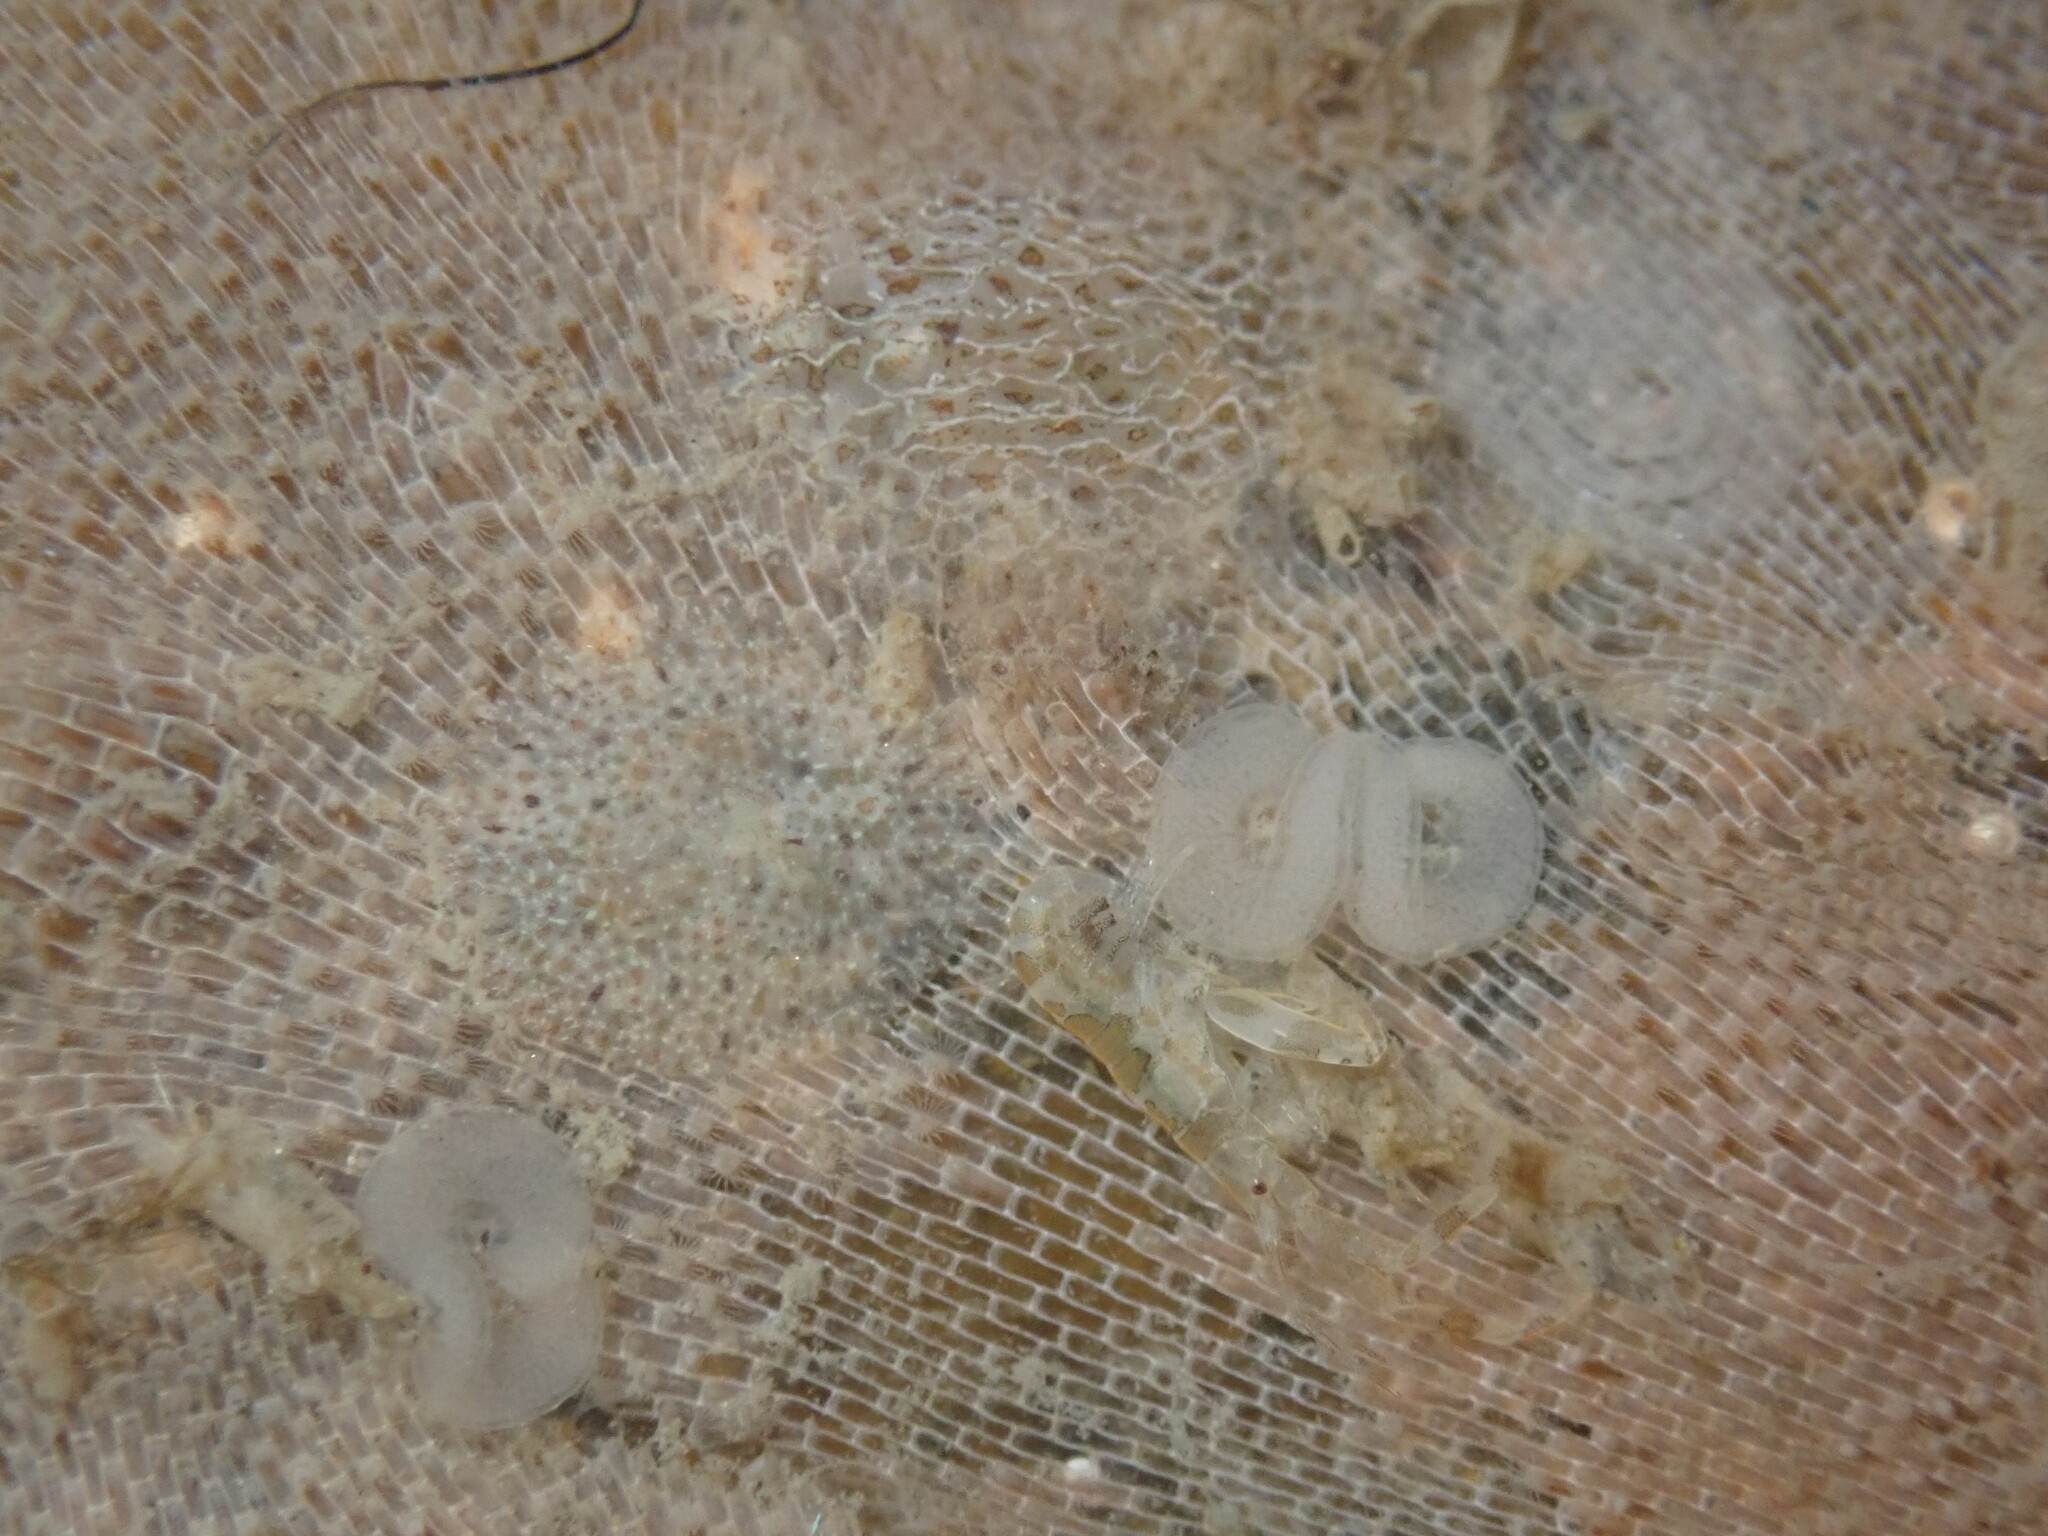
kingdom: Animalia
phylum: Mollusca
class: Gastropoda
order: Nudibranchia
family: Corambidae
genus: Corambe
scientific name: Corambe steinbergae
